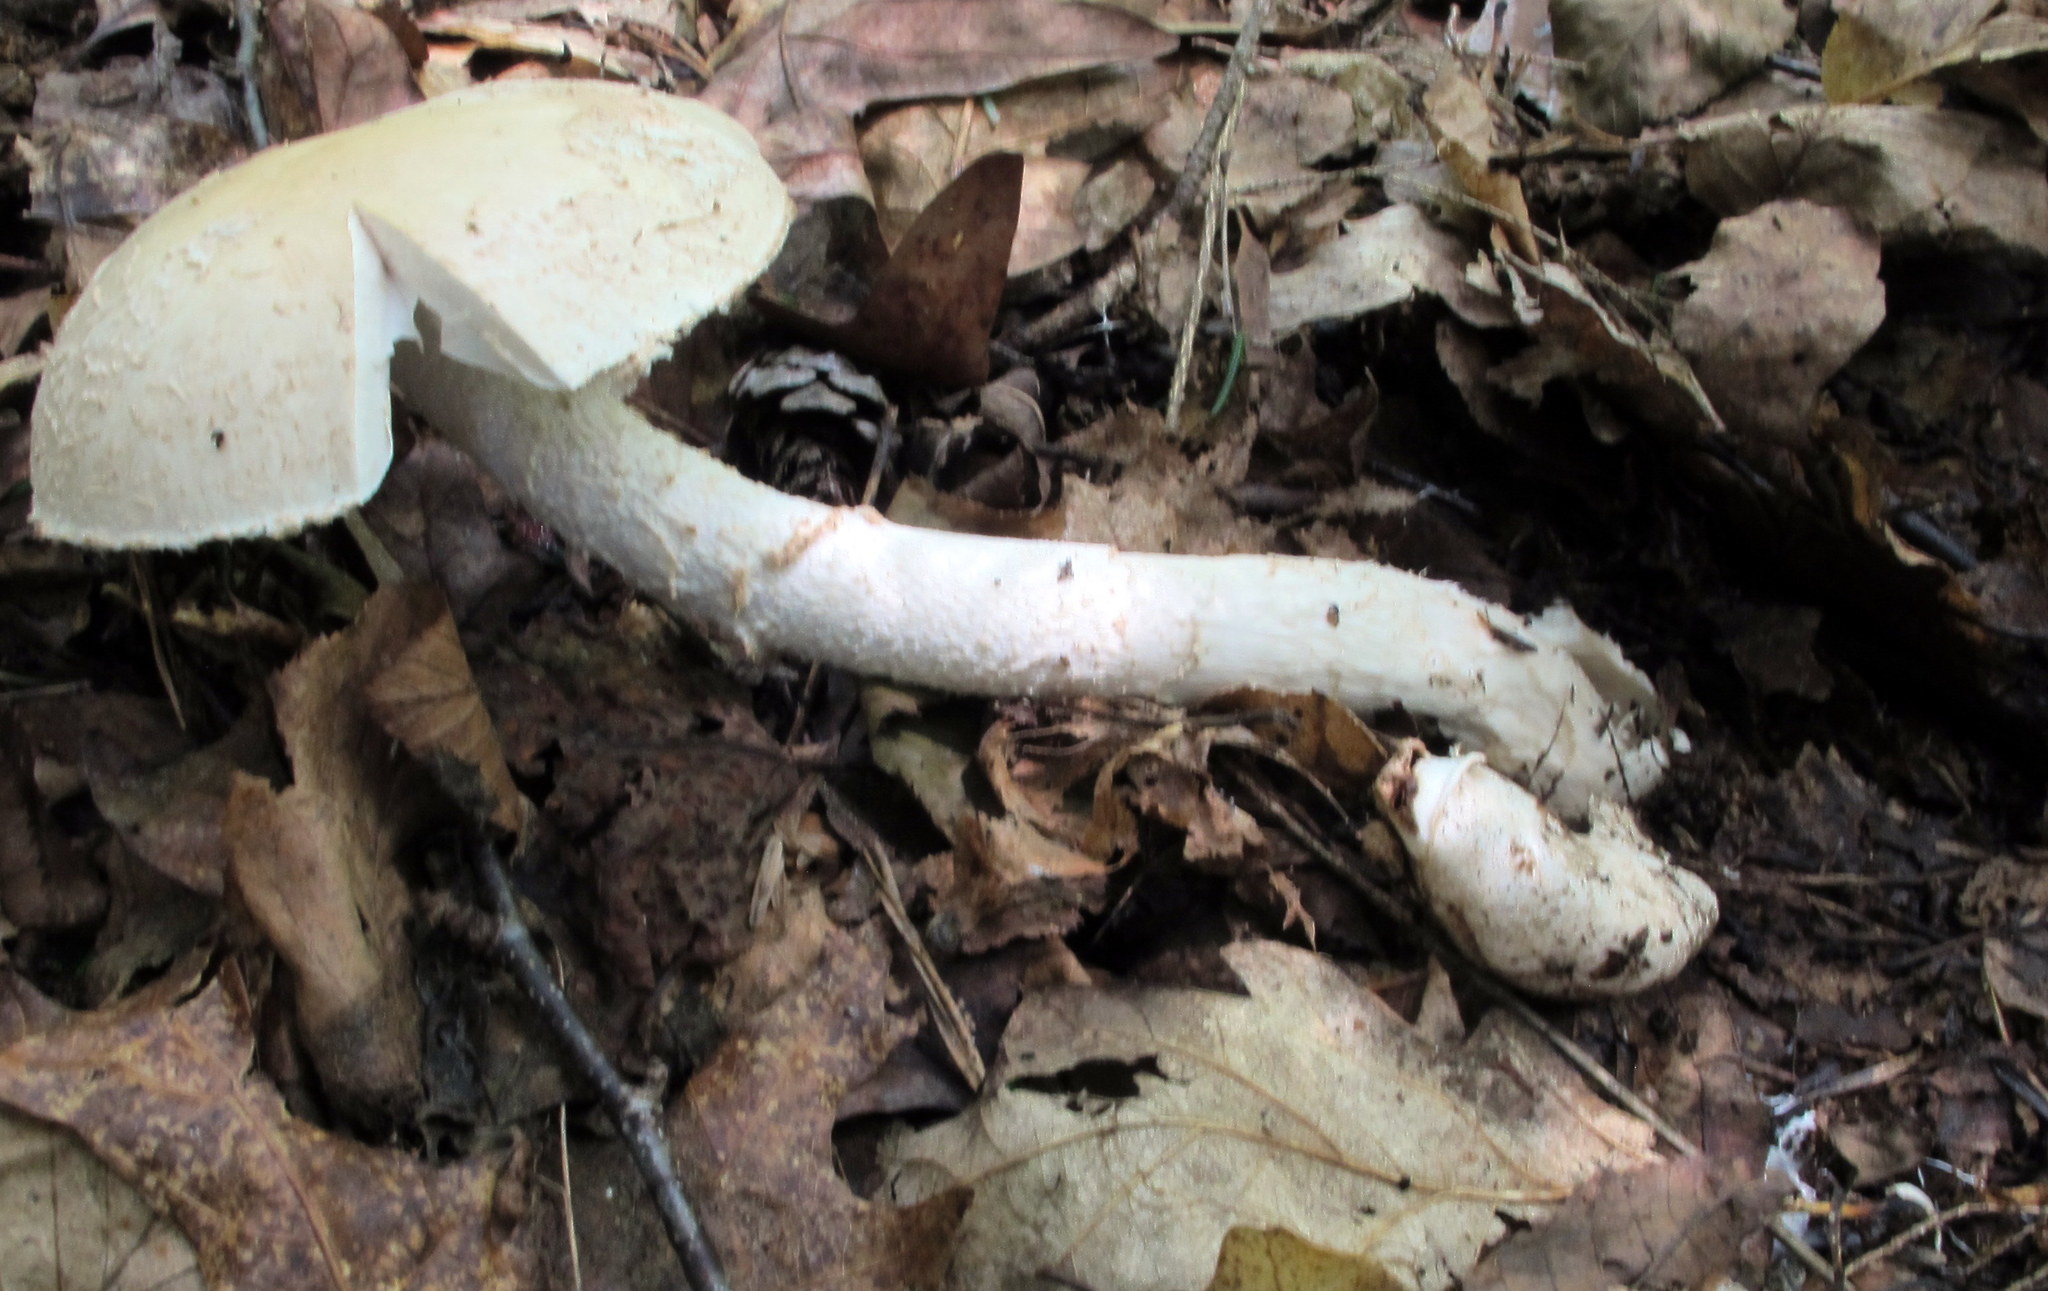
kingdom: Fungi
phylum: Basidiomycota
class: Agaricomycetes
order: Agaricales
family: Amanitaceae
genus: Amanita
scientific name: Amanita volvata
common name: American amidella
